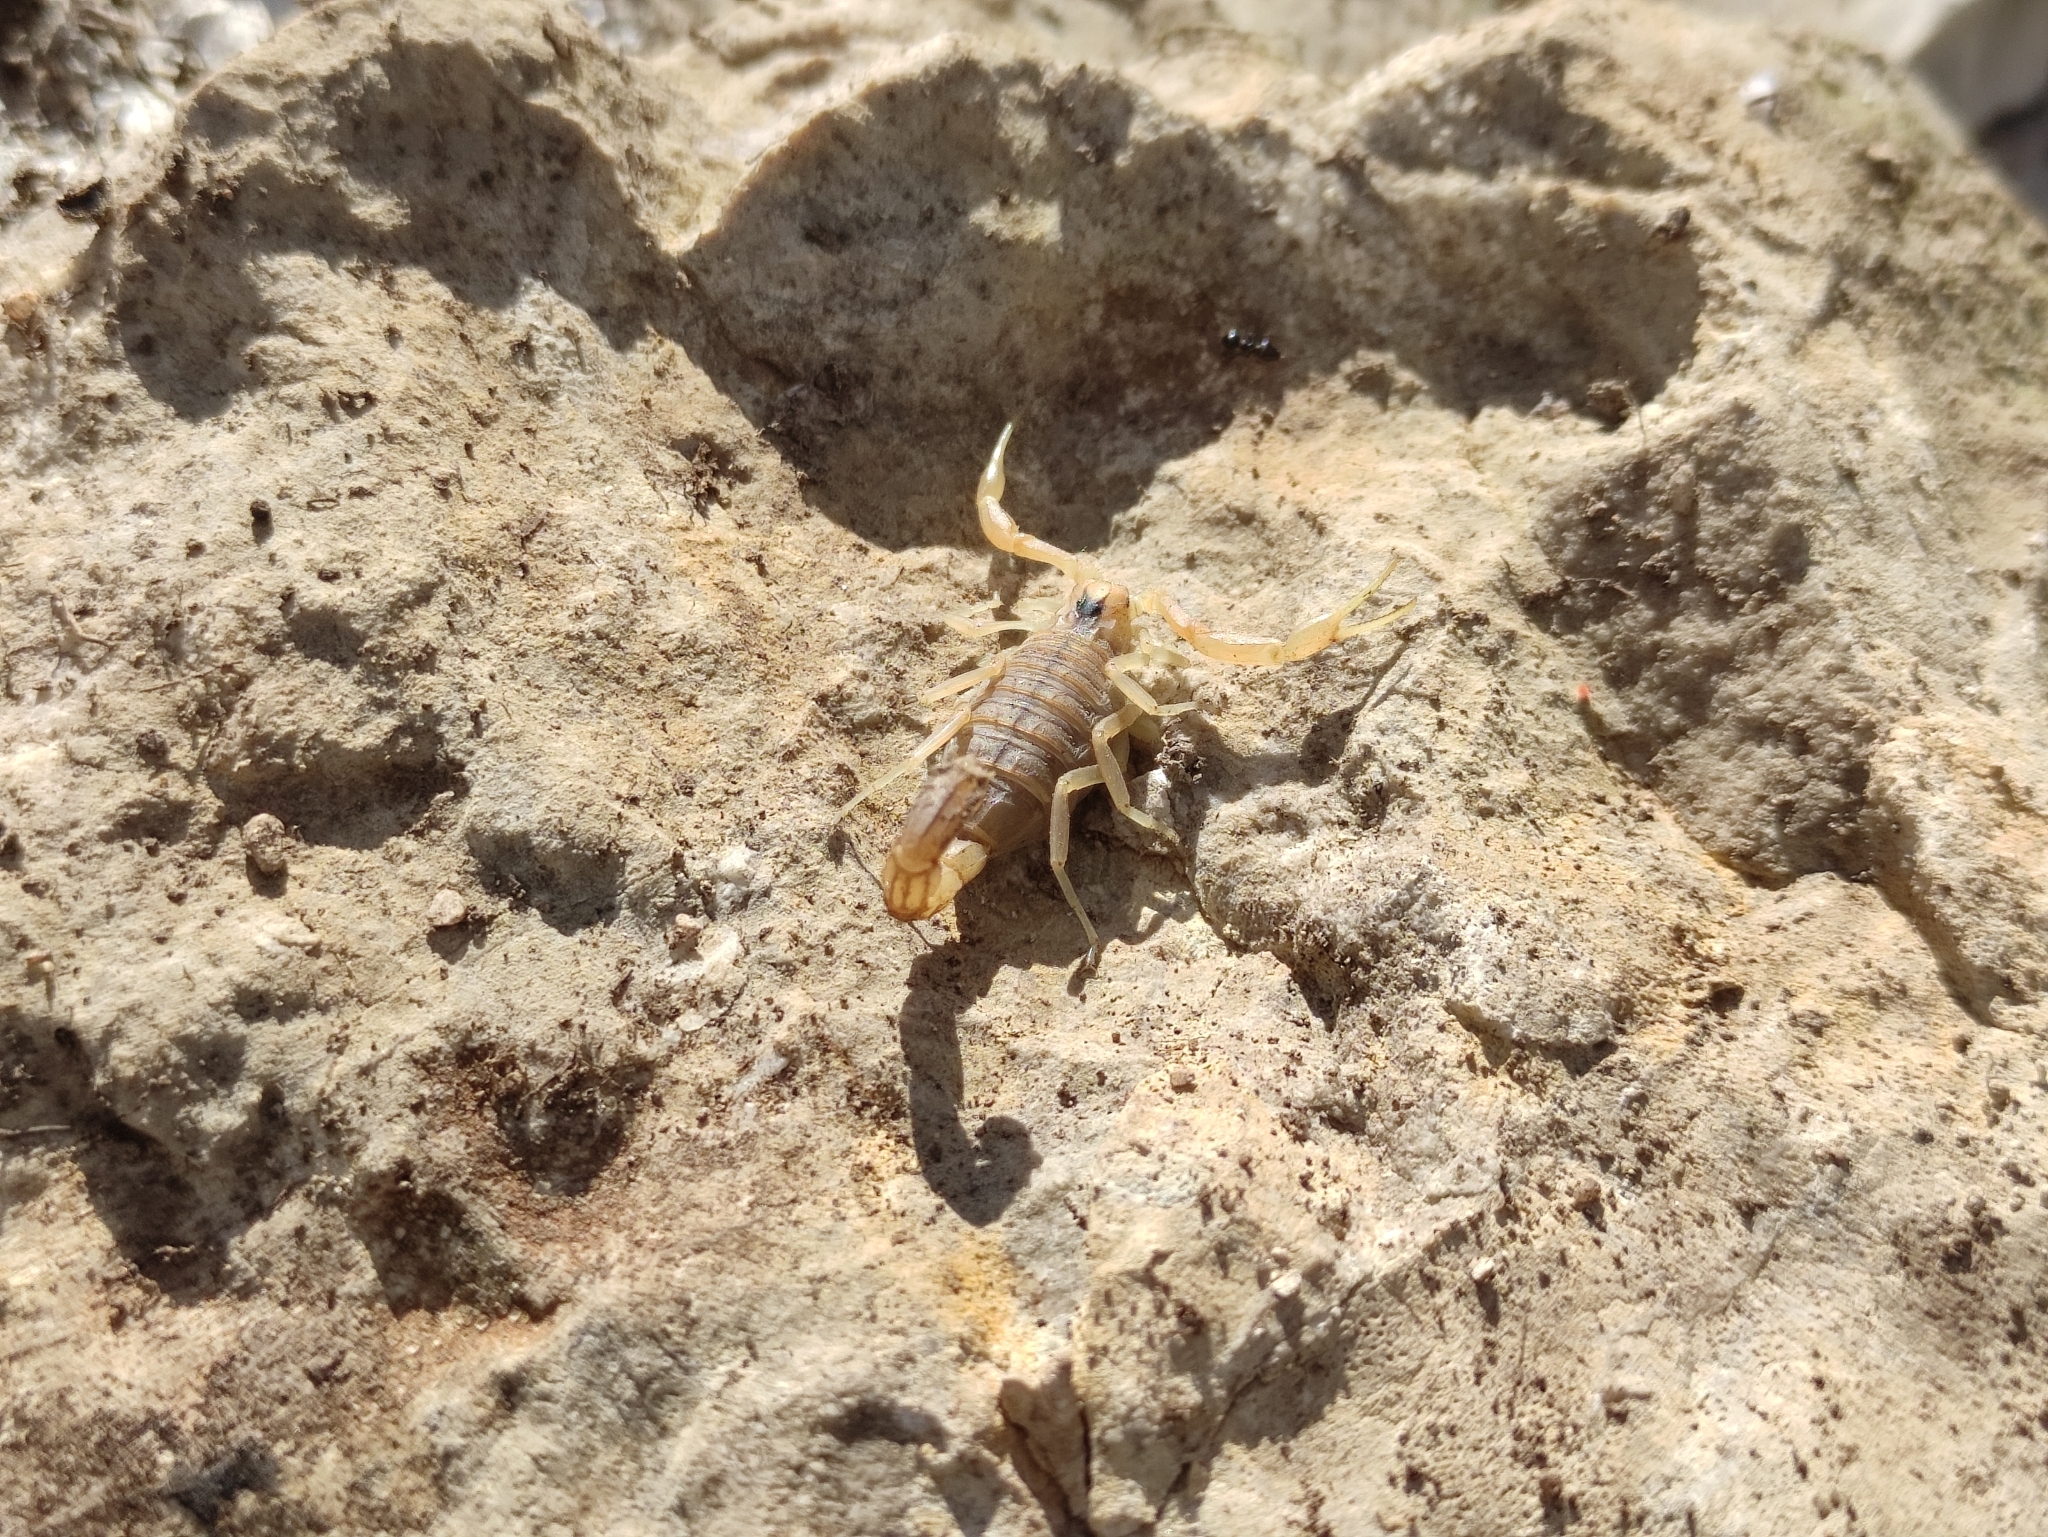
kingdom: Animalia
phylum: Arthropoda
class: Arachnida
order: Scorpiones
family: Buthidae
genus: Buthus
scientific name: Buthus balmensis
